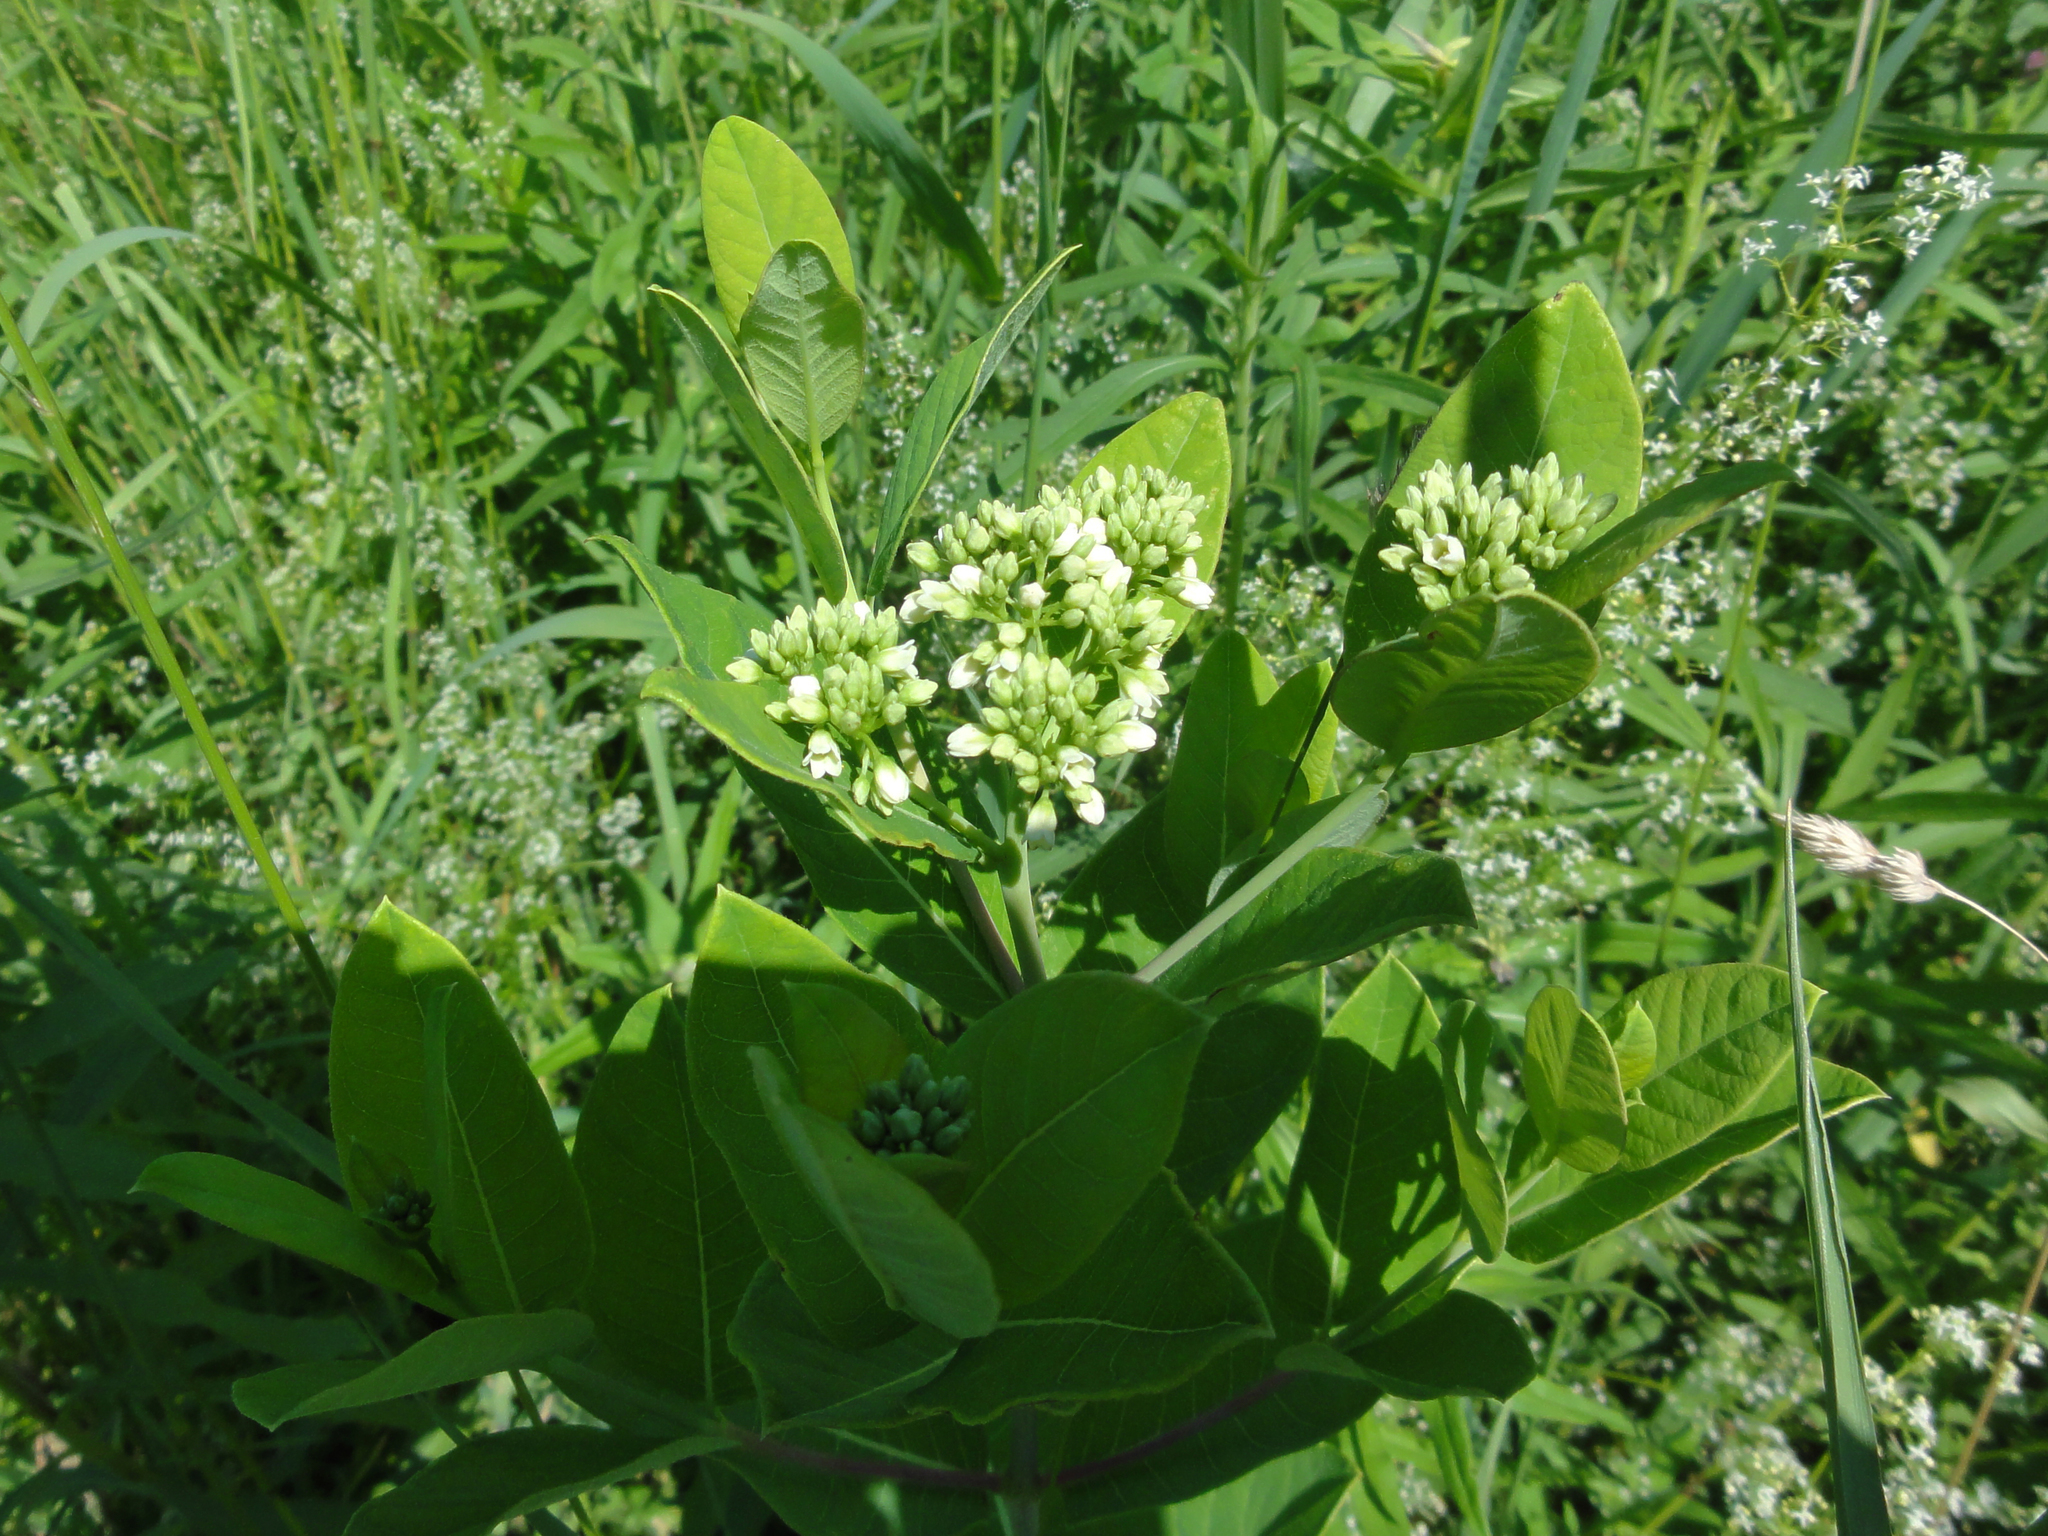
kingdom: Plantae
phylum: Tracheophyta
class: Magnoliopsida
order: Gentianales
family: Apocynaceae
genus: Apocynum
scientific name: Apocynum cannabinum
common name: Hemp dogbane
